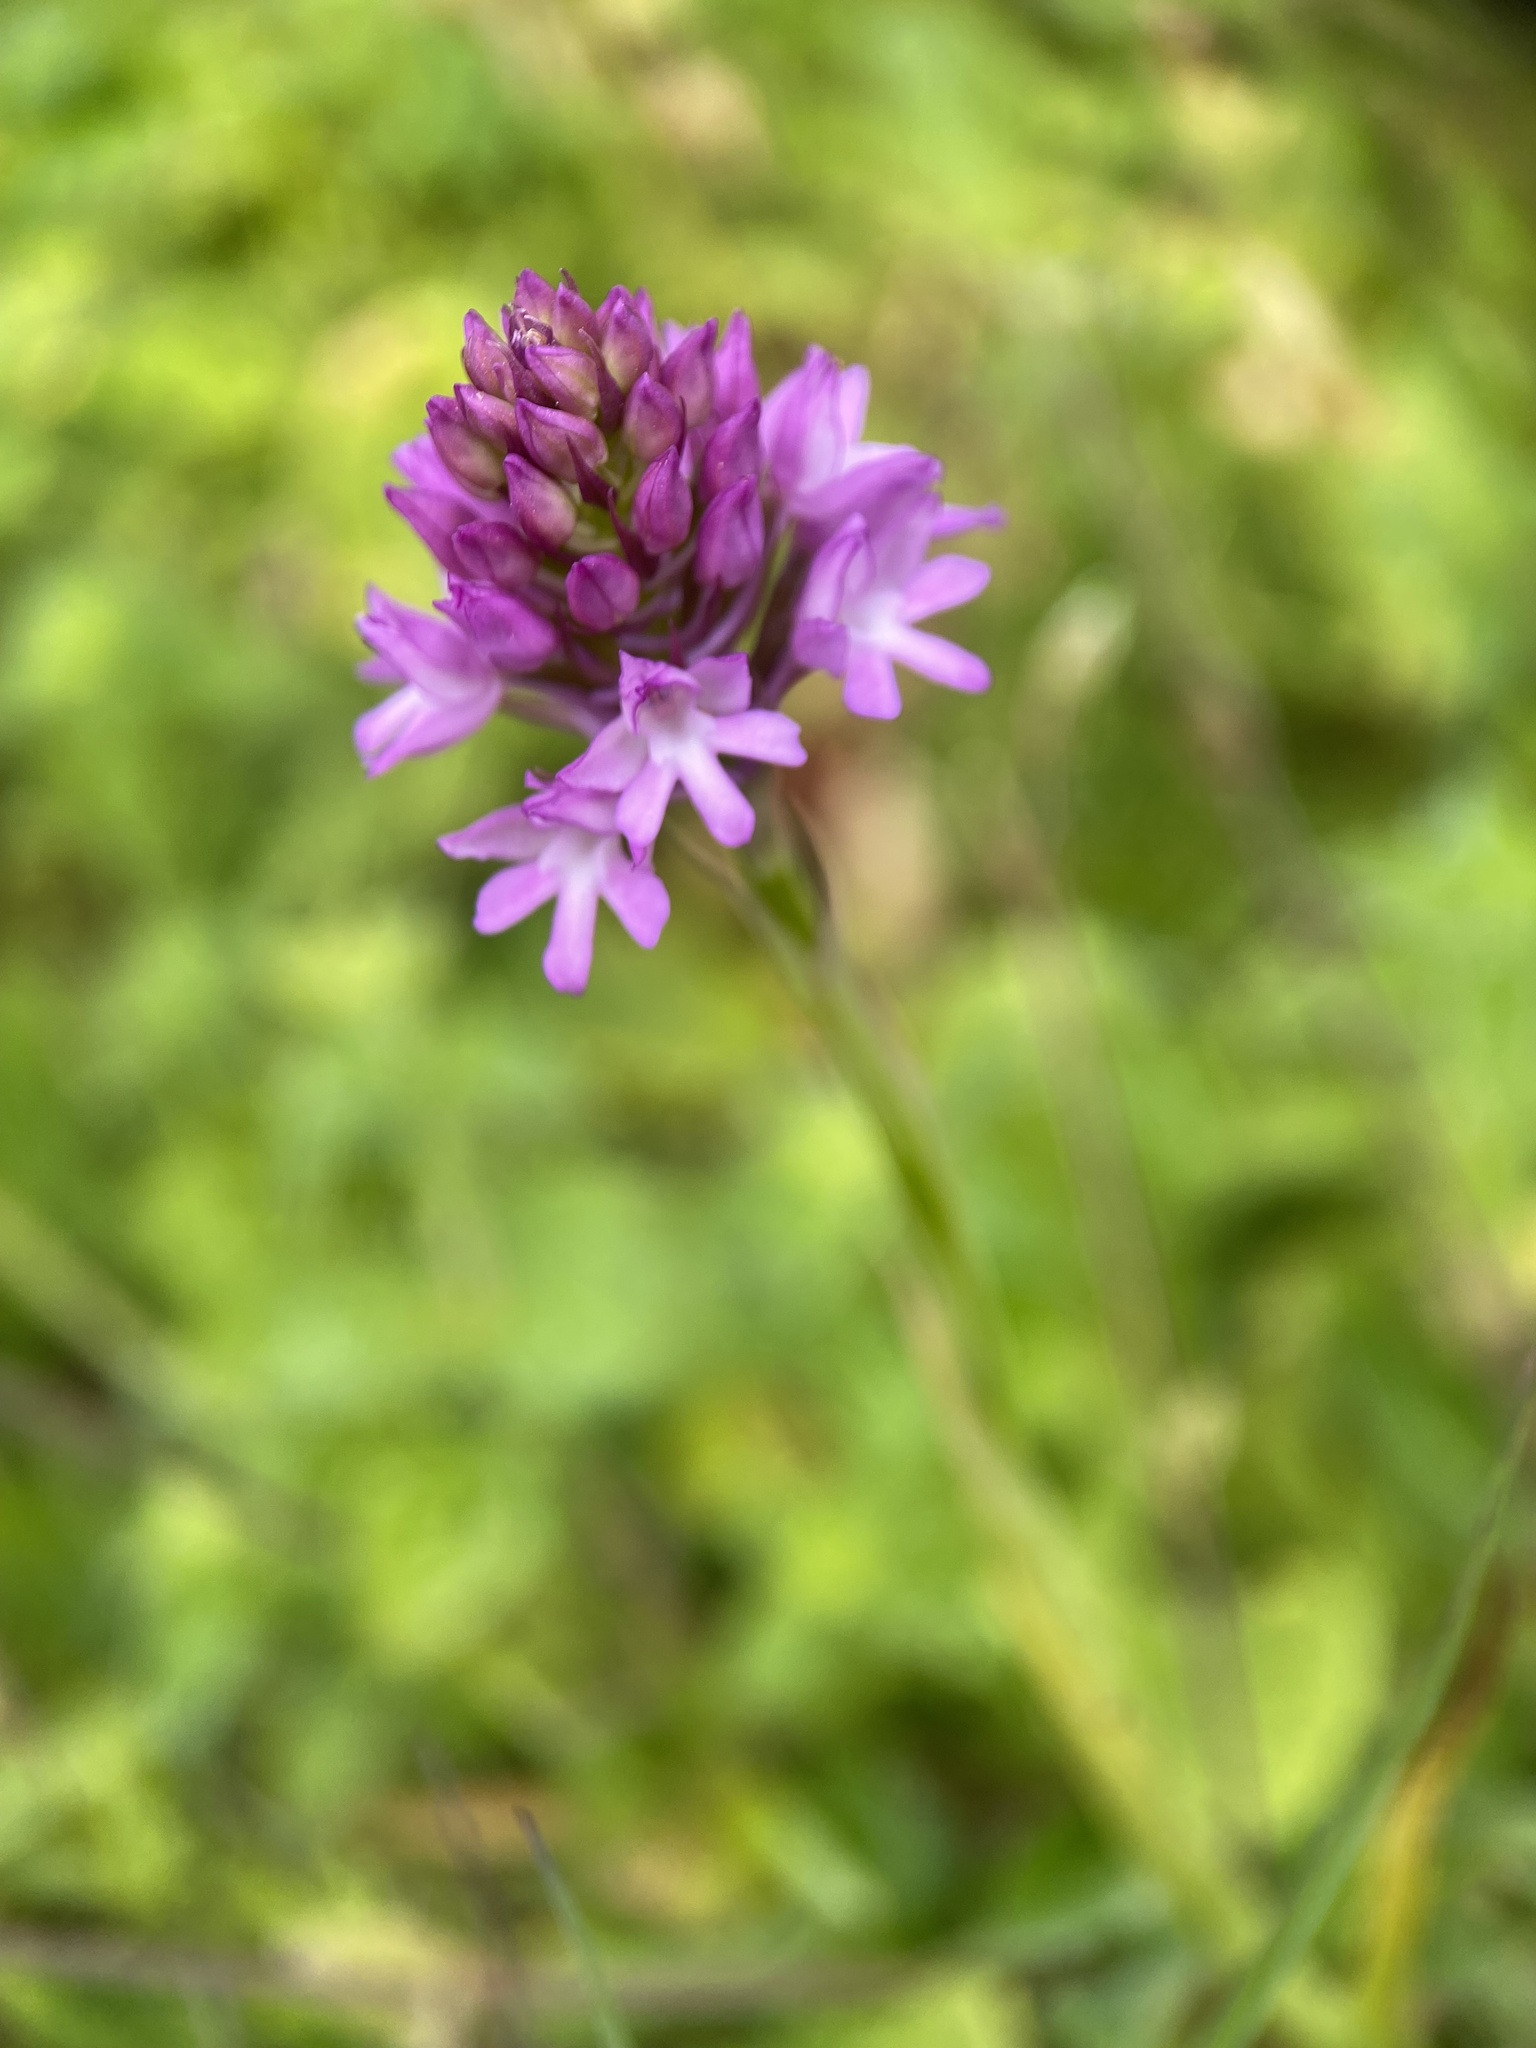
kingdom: Plantae
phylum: Tracheophyta
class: Liliopsida
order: Asparagales
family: Orchidaceae
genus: Anacamptis
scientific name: Anacamptis pyramidalis
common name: Pyramidal orchid
